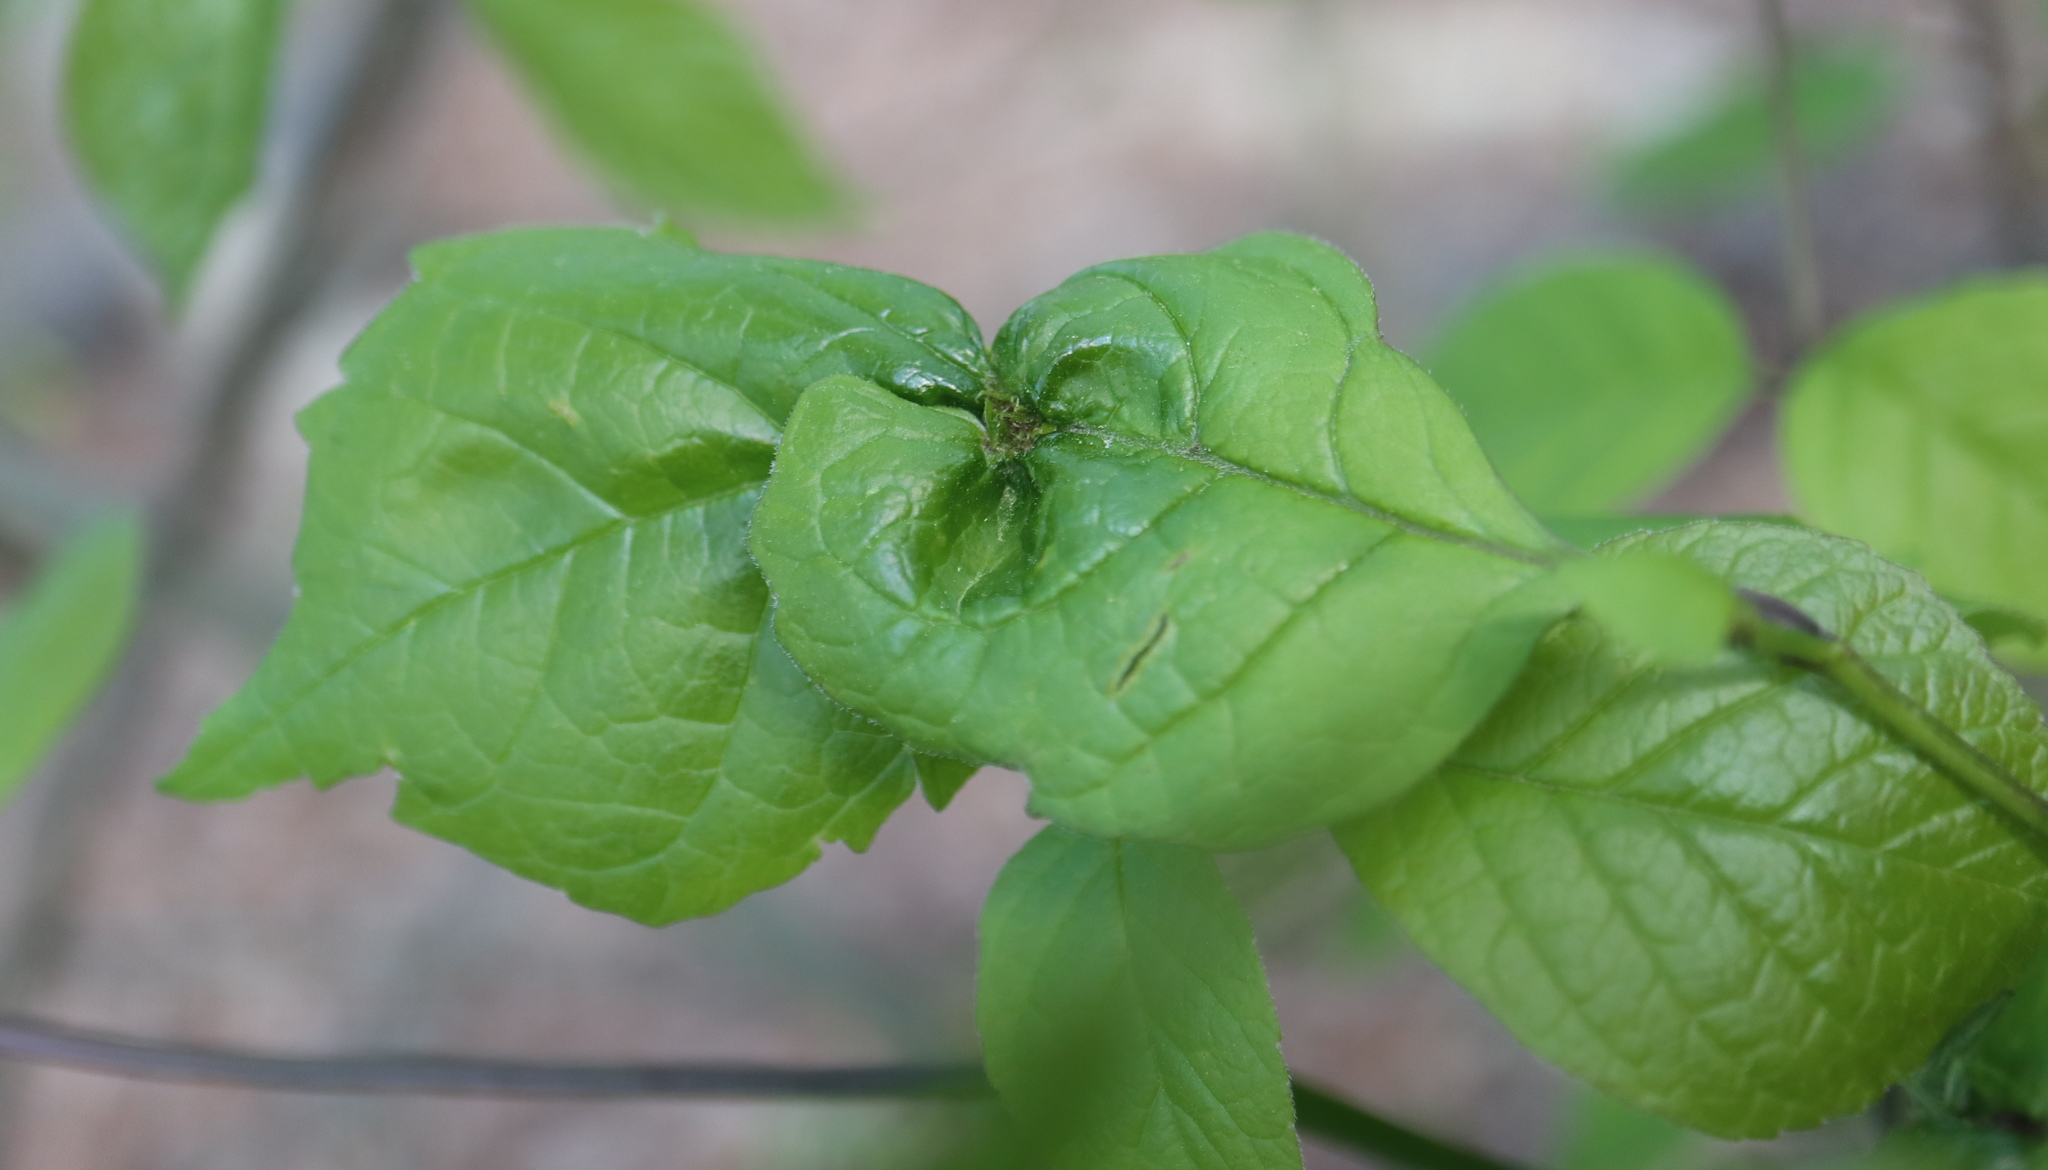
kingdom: Bacteria
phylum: Firmicutes
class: Bacilli
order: Acholeplasmatales
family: Acholeplasmataceae
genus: Phytoplasma
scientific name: Phytoplasma
